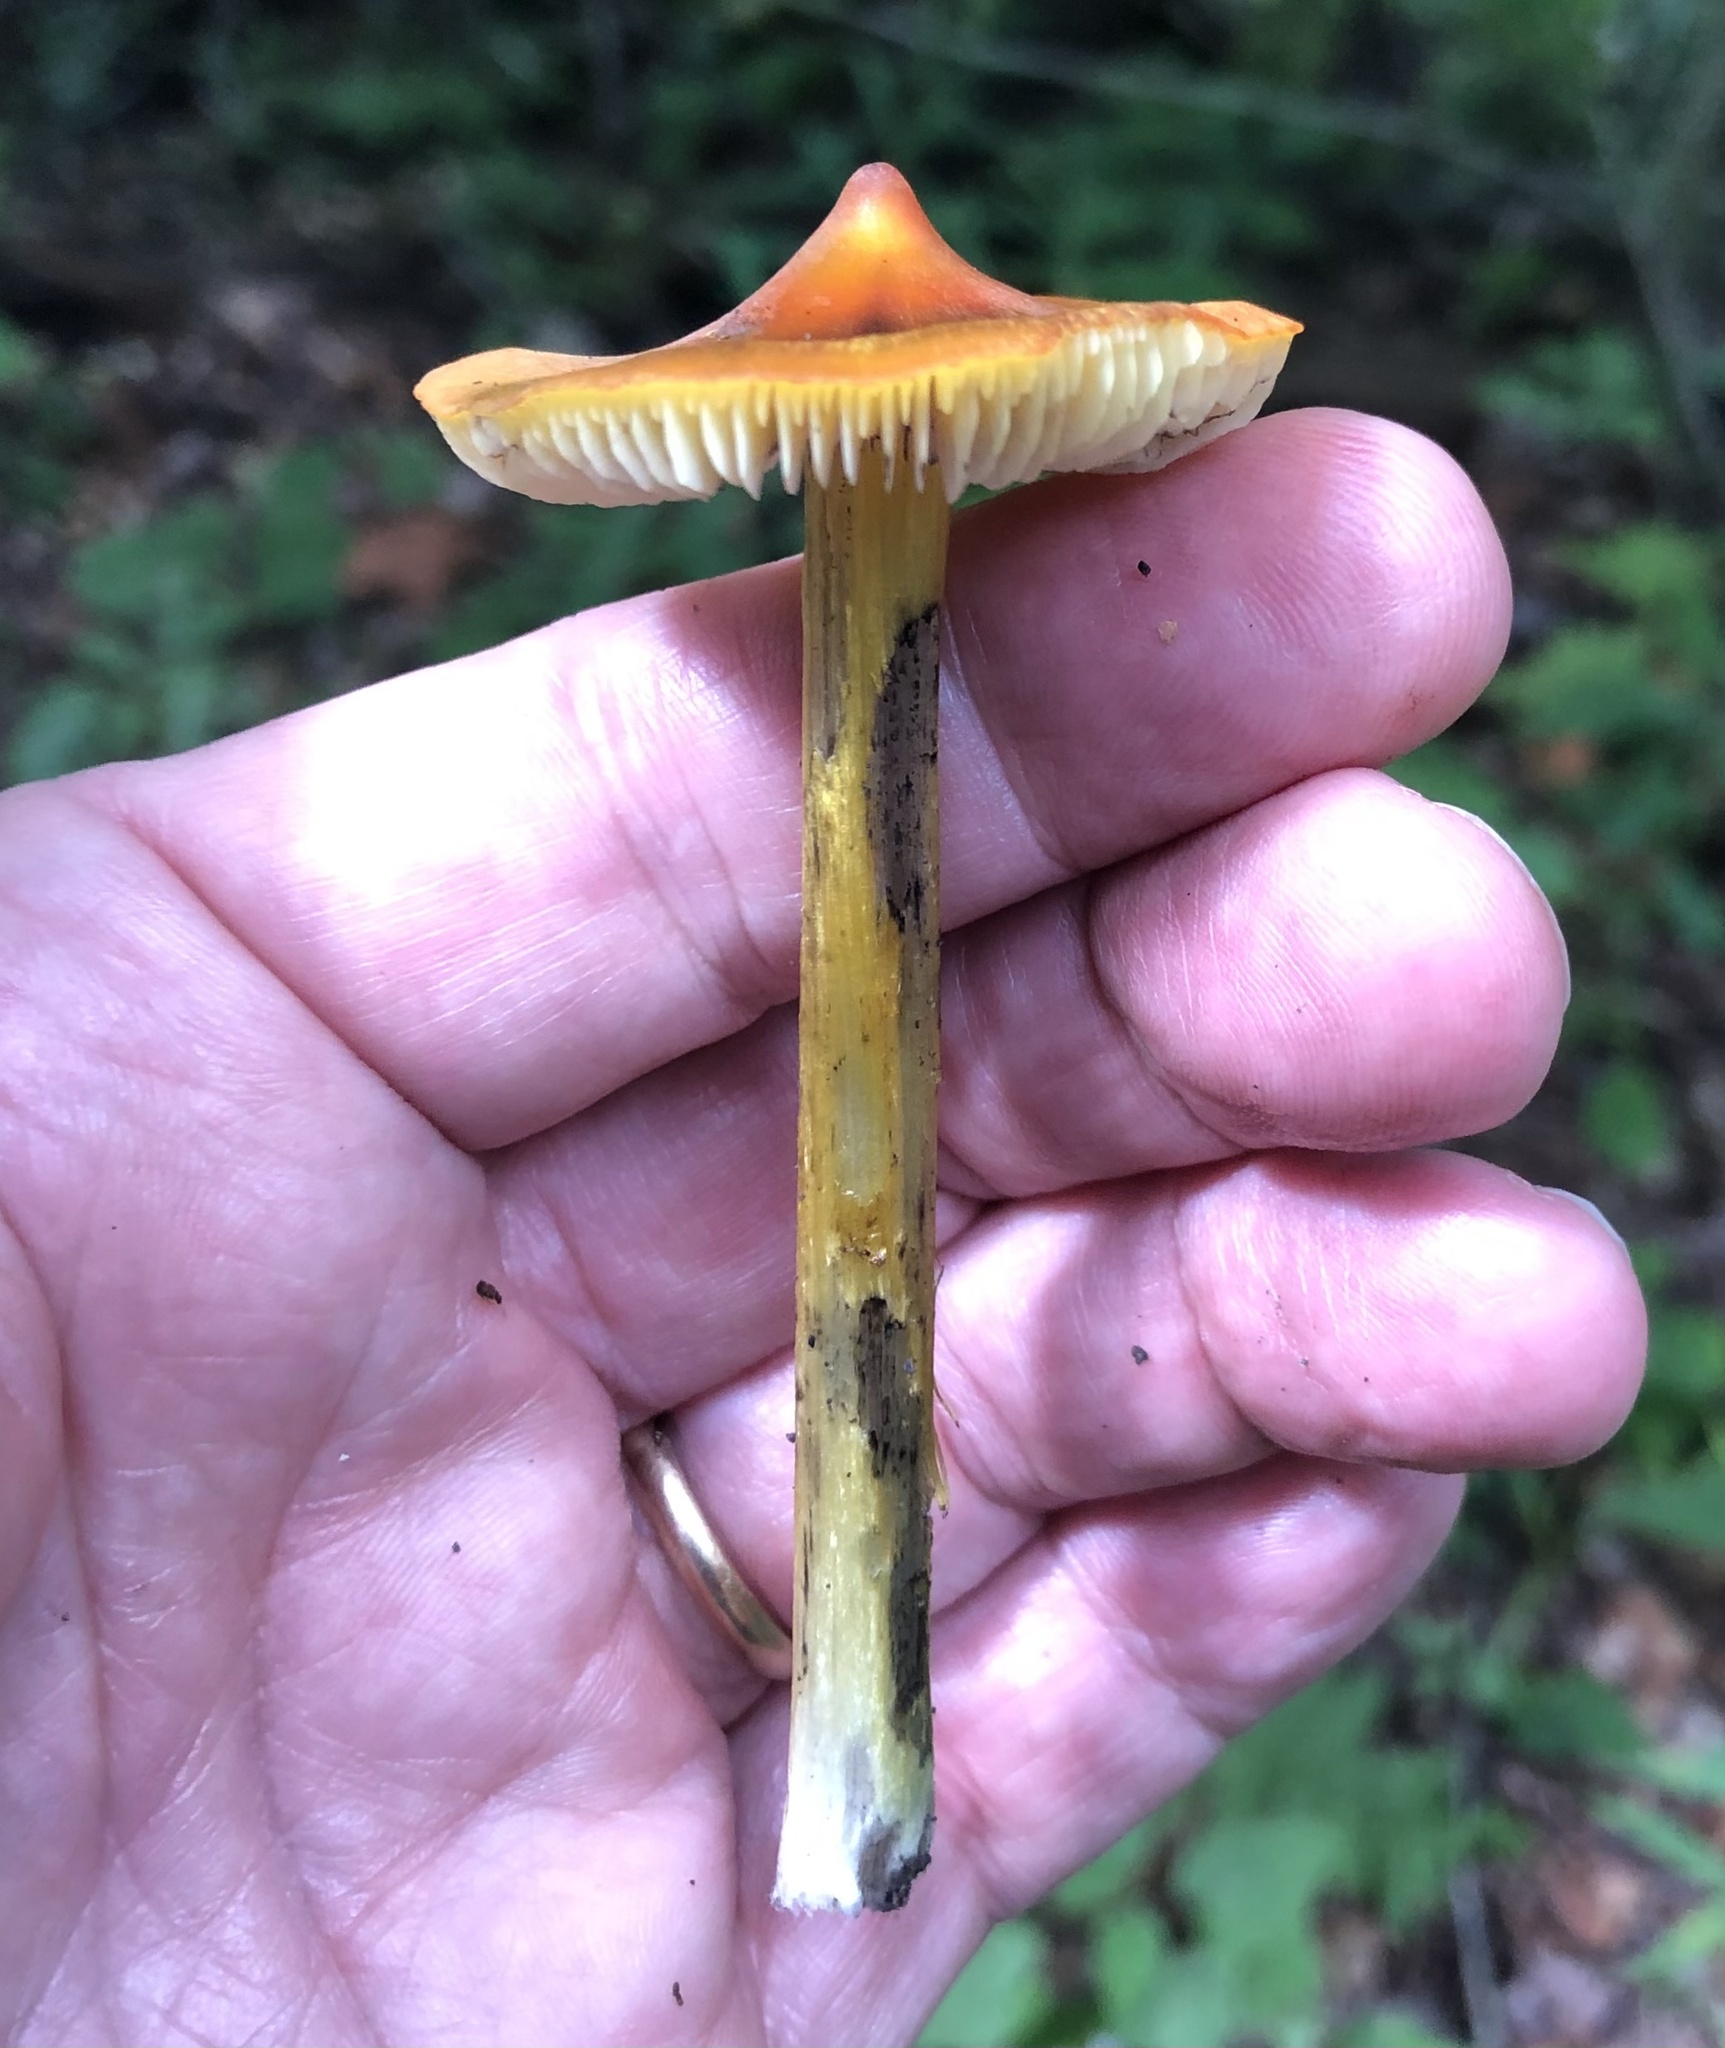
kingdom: Fungi
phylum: Basidiomycota
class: Agaricomycetes
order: Agaricales
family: Hygrophoraceae
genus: Hygrocybe
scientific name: Hygrocybe conica
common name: Blackening wax-cap
